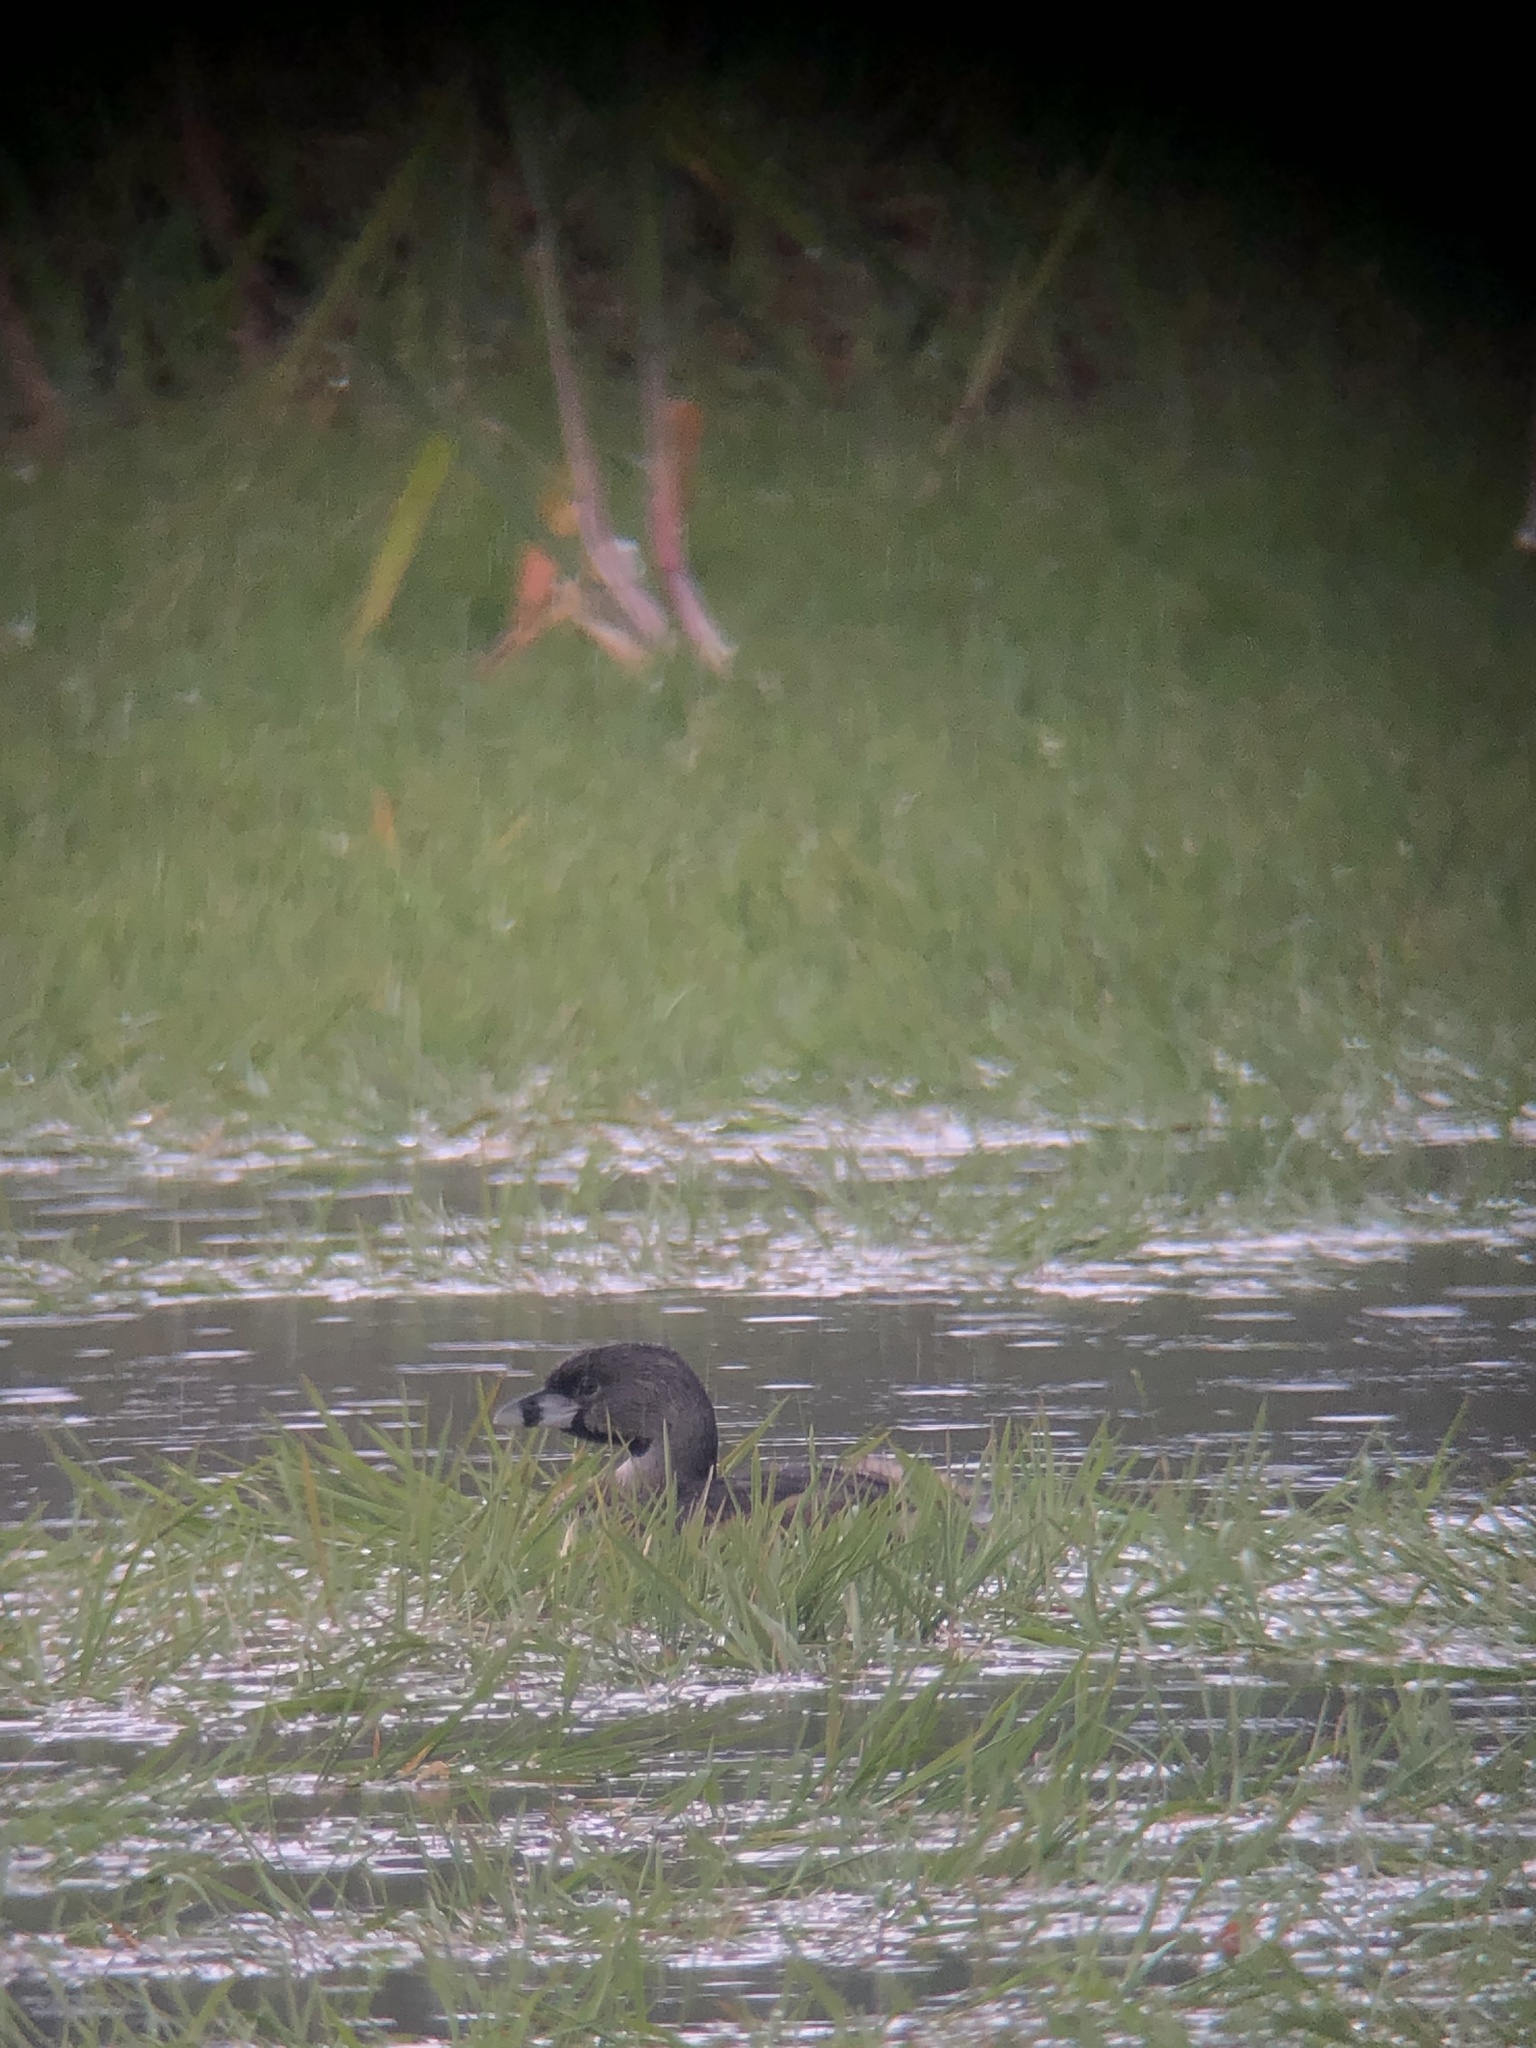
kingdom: Animalia
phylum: Chordata
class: Aves
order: Podicipediformes
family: Podicipedidae
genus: Podilymbus
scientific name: Podilymbus podiceps
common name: Pied-billed grebe
